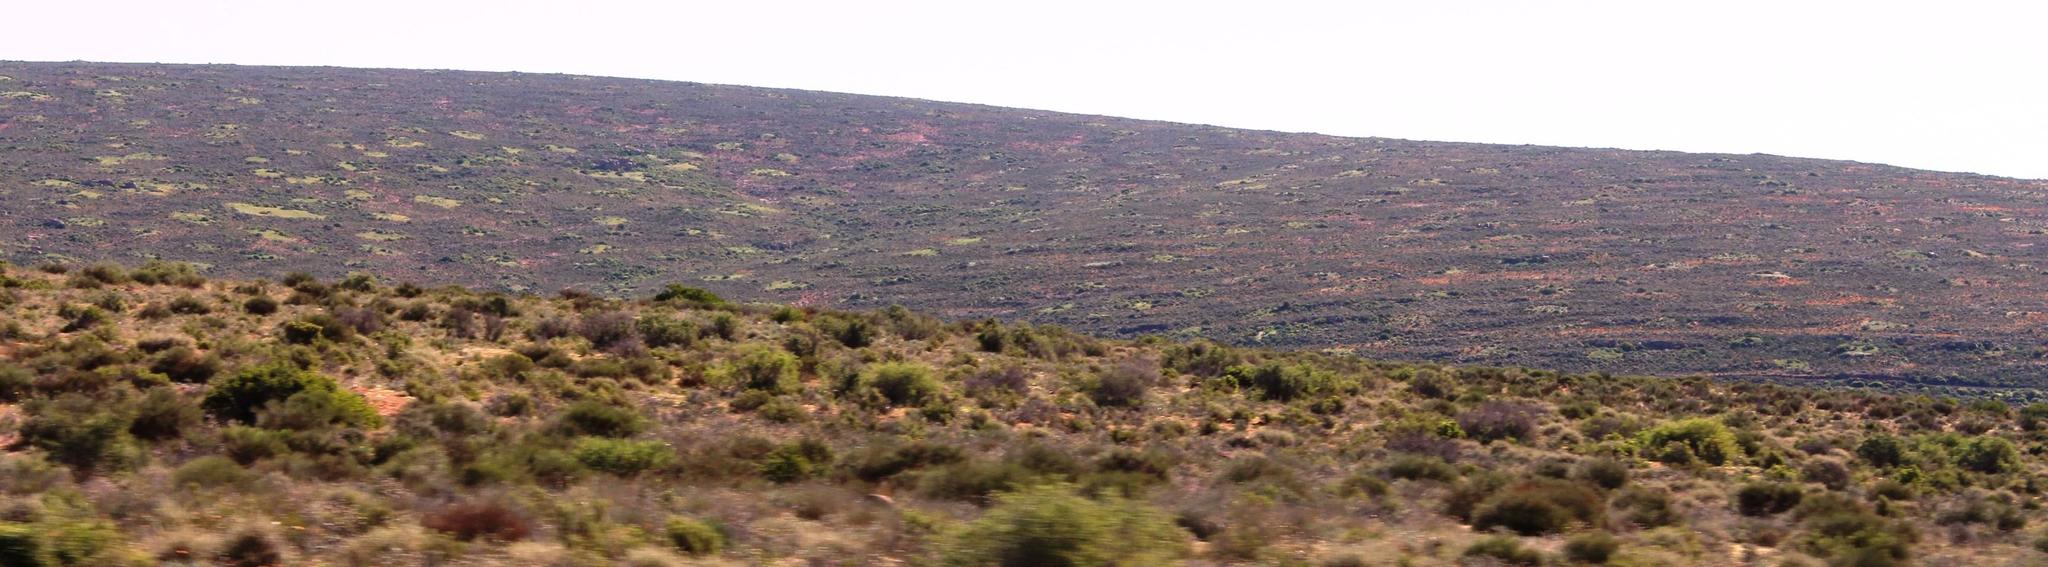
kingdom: Animalia
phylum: Arthropoda
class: Insecta
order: Blattodea
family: Hodotermitidae
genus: Microhodotermes
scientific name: Microhodotermes viator
